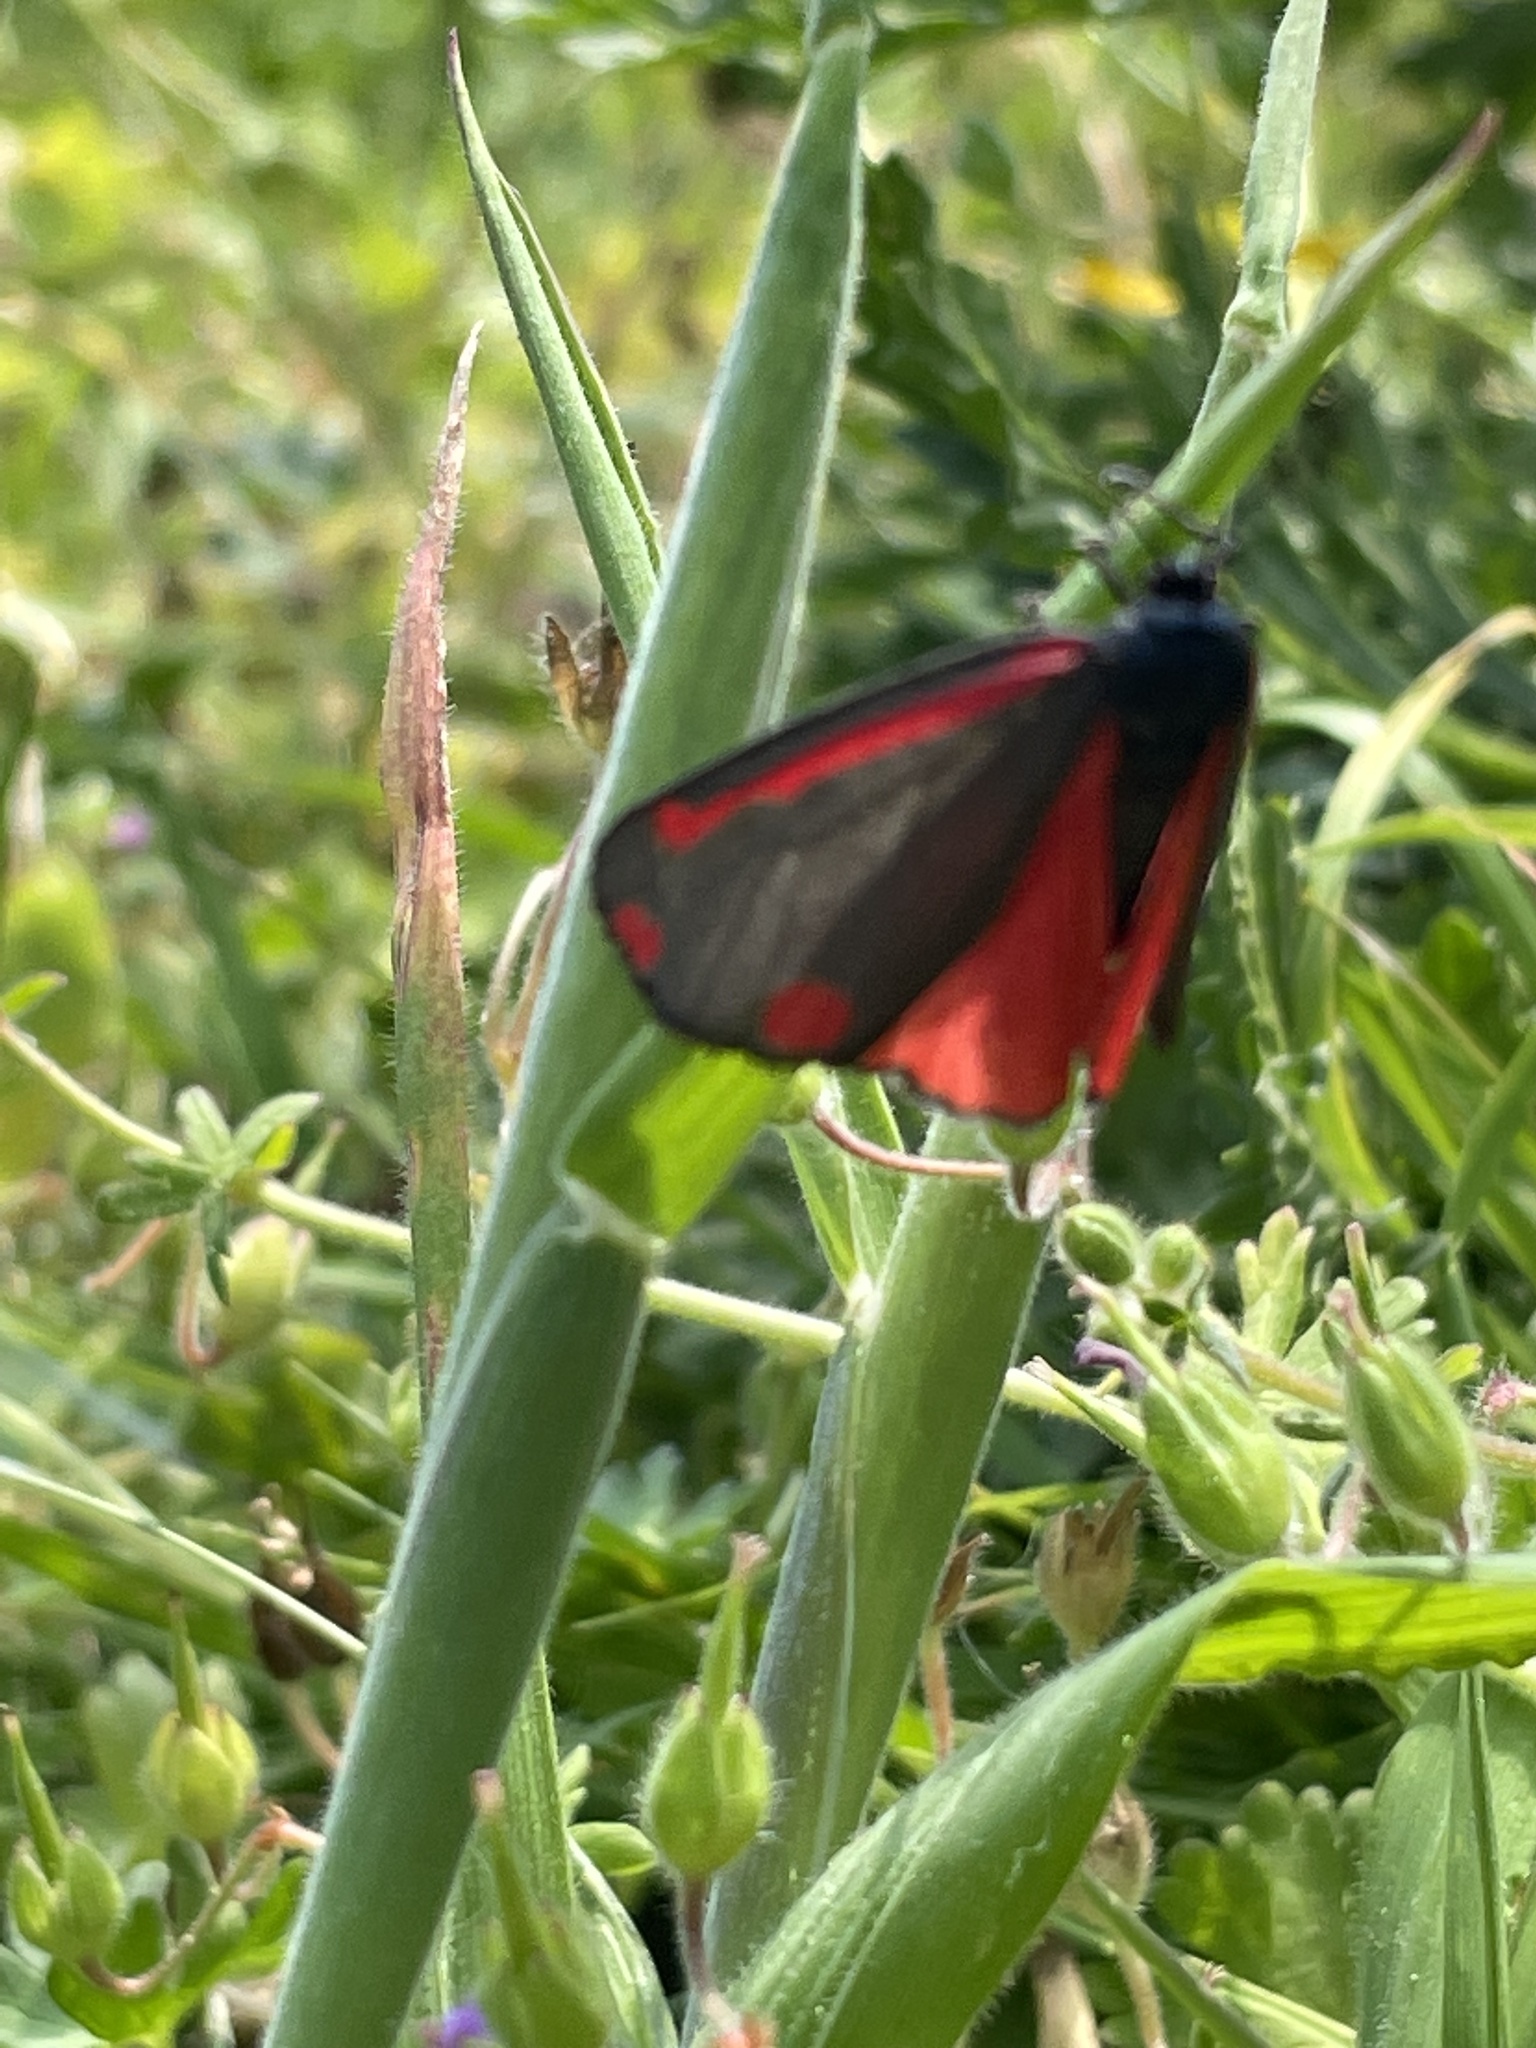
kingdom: Animalia
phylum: Arthropoda
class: Insecta
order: Lepidoptera
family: Erebidae
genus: Tyria
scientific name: Tyria jacobaeae
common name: Cinnabar
